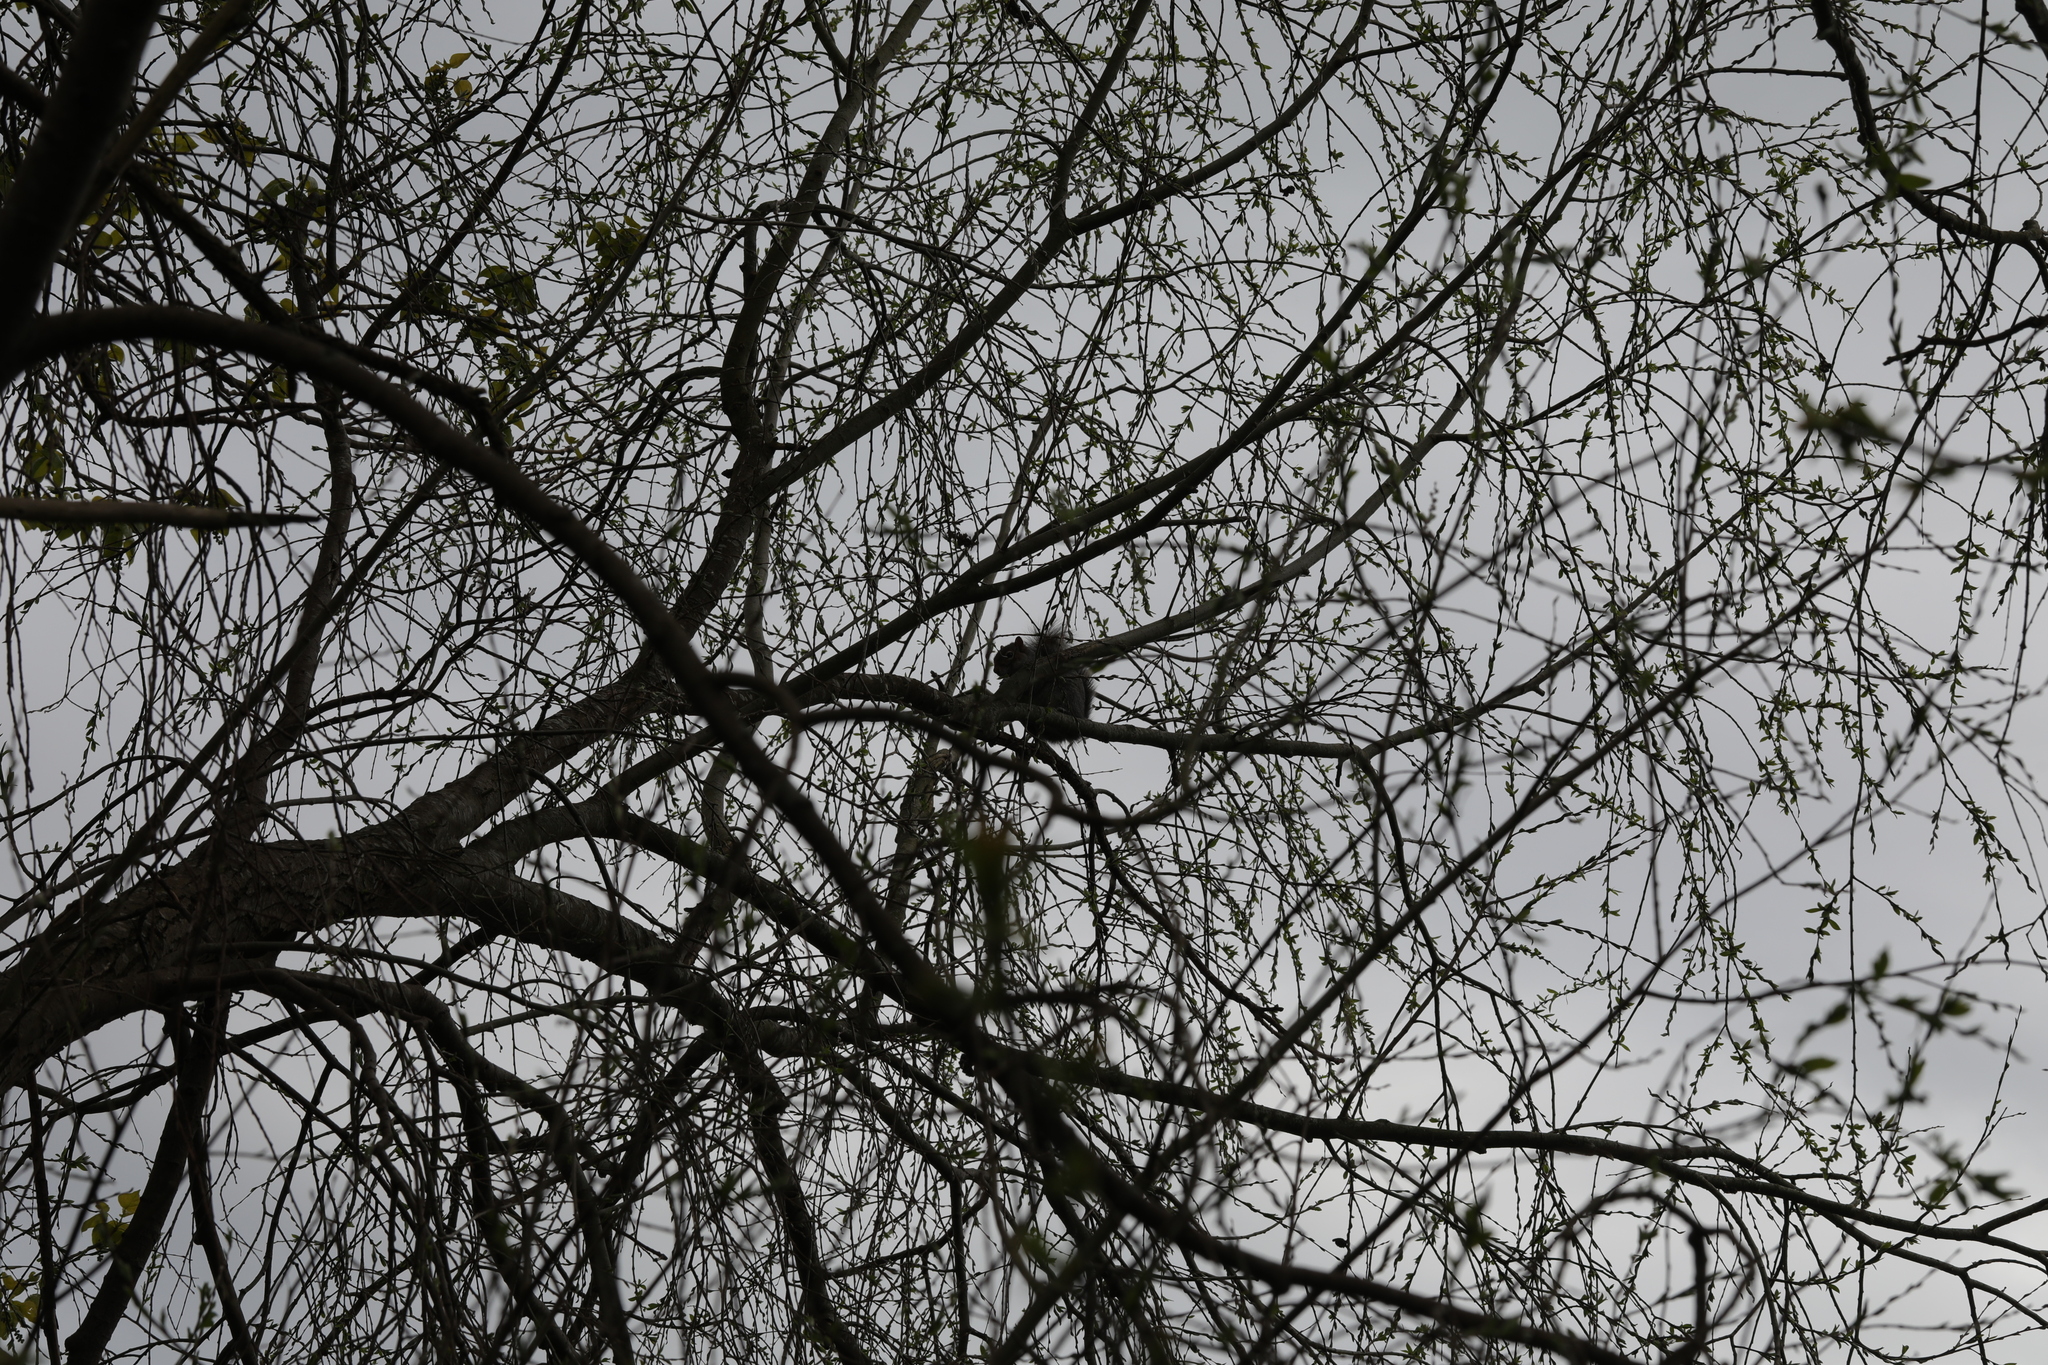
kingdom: Animalia
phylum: Chordata
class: Mammalia
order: Rodentia
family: Sciuridae
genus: Sciurus
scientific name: Sciurus carolinensis
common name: Eastern gray squirrel
